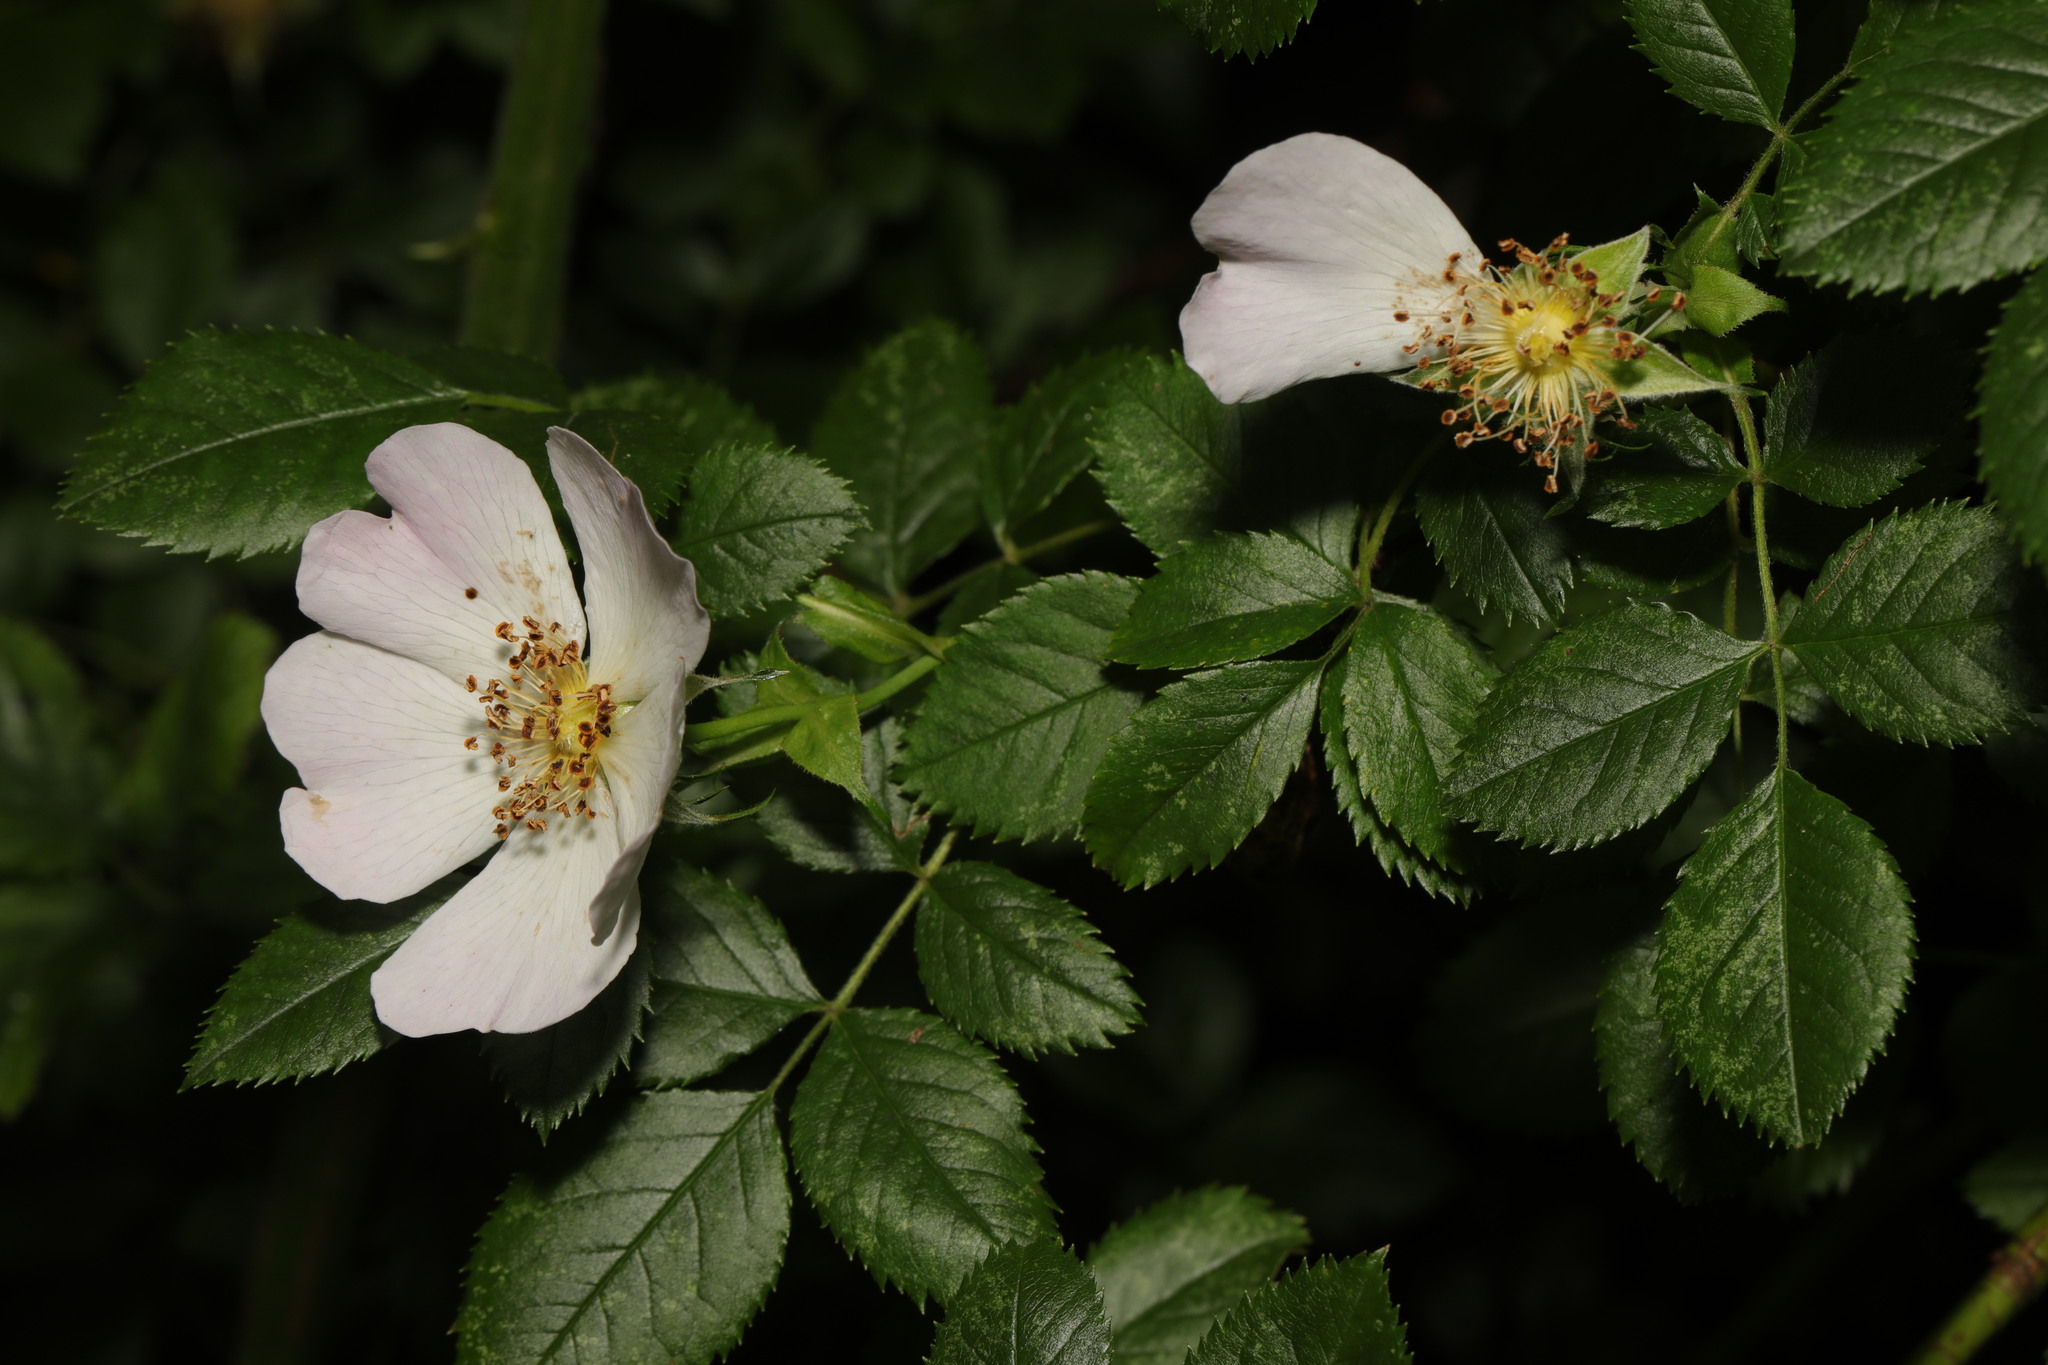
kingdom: Plantae
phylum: Tracheophyta
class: Magnoliopsida
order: Rosales
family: Rosaceae
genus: Rosa
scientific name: Rosa canina
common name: Dog rose
